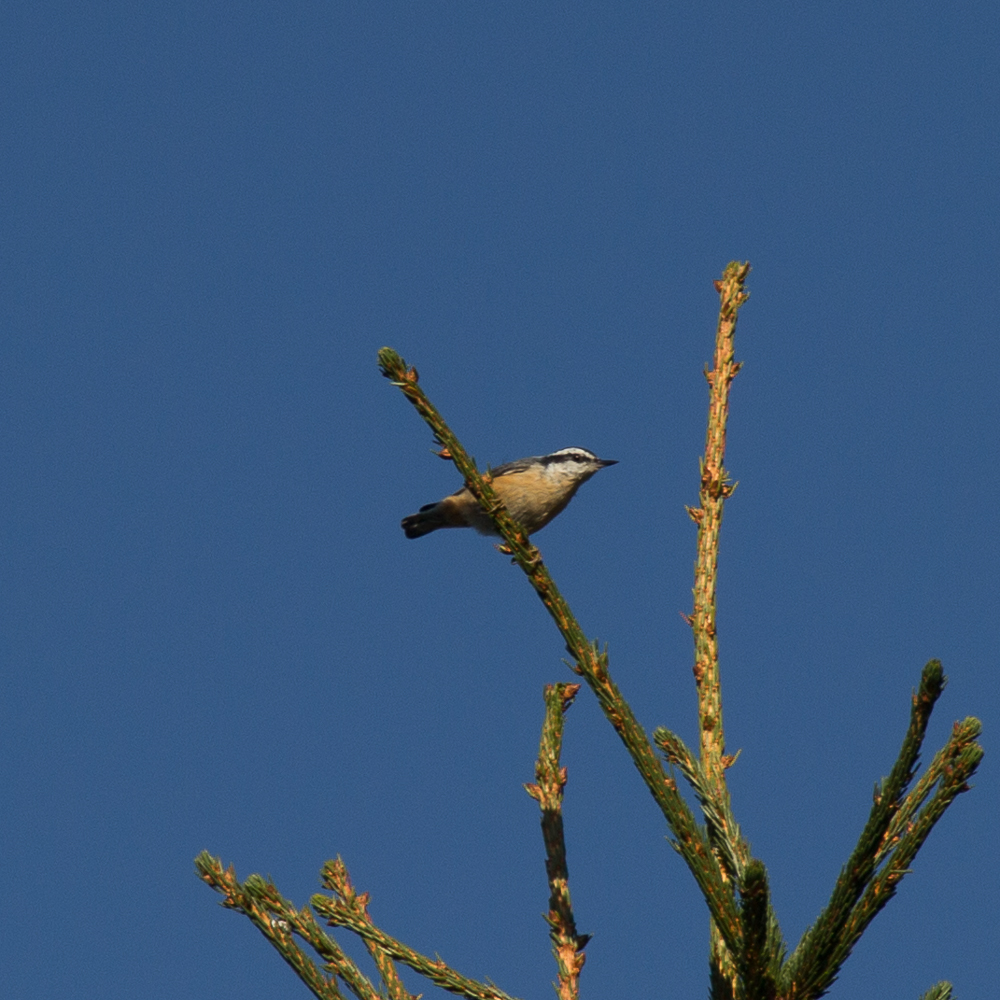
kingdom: Animalia
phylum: Chordata
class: Aves
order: Passeriformes
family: Sittidae
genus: Sitta
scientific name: Sitta canadensis
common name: Red-breasted nuthatch
